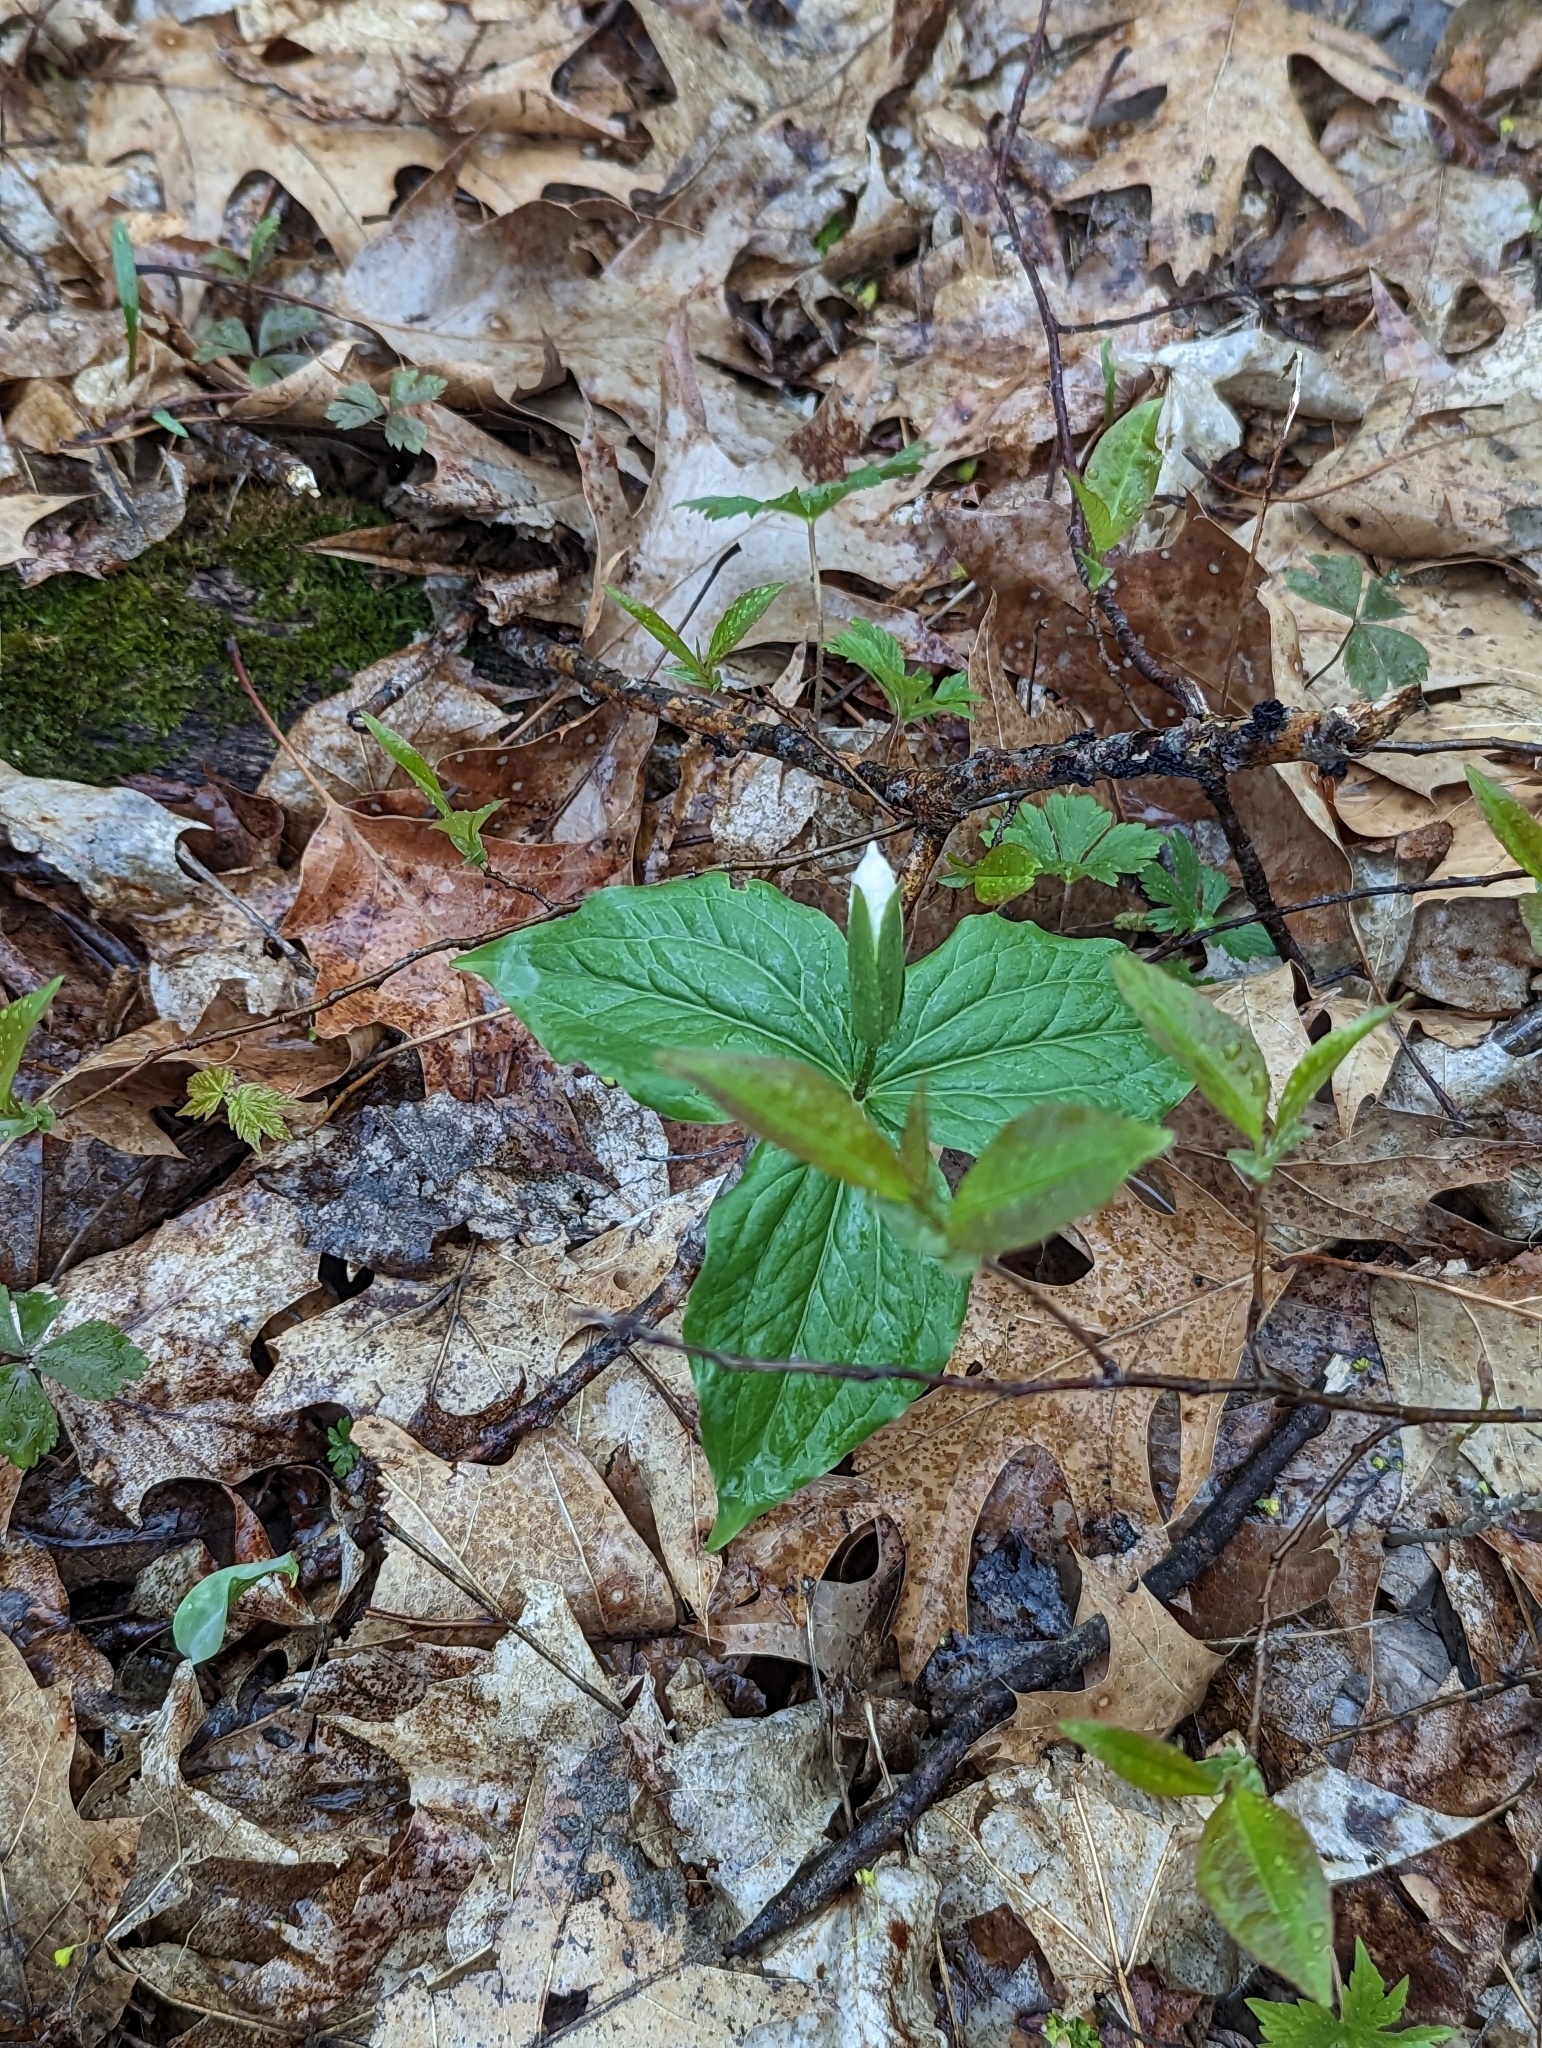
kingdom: Plantae
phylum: Tracheophyta
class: Liliopsida
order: Liliales
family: Melanthiaceae
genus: Trillium
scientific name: Trillium grandiflorum
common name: Great white trillium
